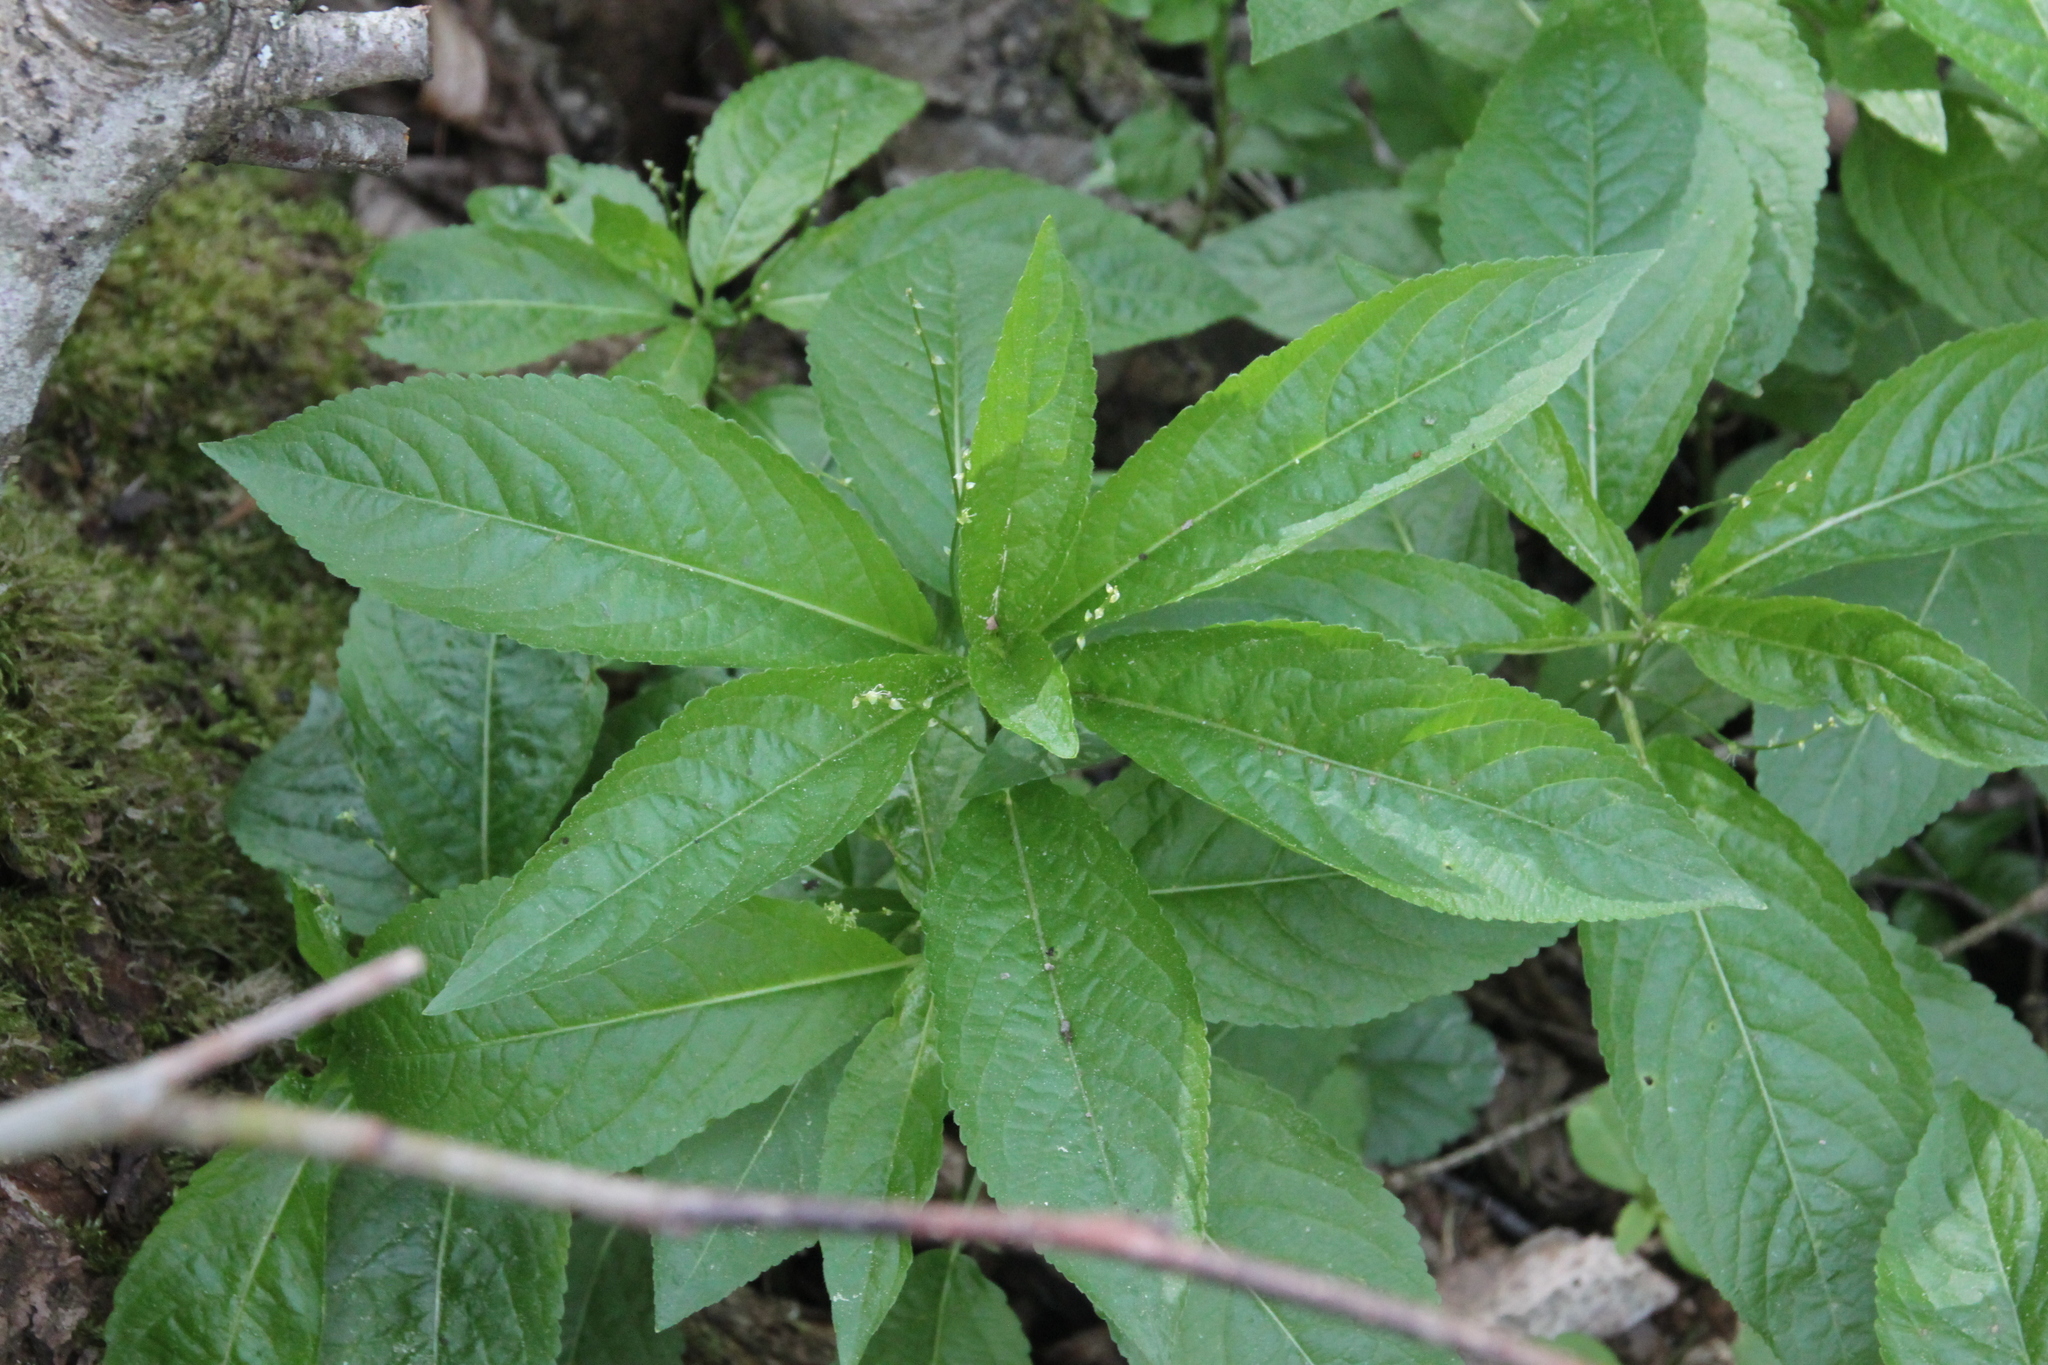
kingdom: Plantae
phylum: Tracheophyta
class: Magnoliopsida
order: Malpighiales
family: Euphorbiaceae
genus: Mercurialis
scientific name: Mercurialis perennis
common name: Dog mercury
